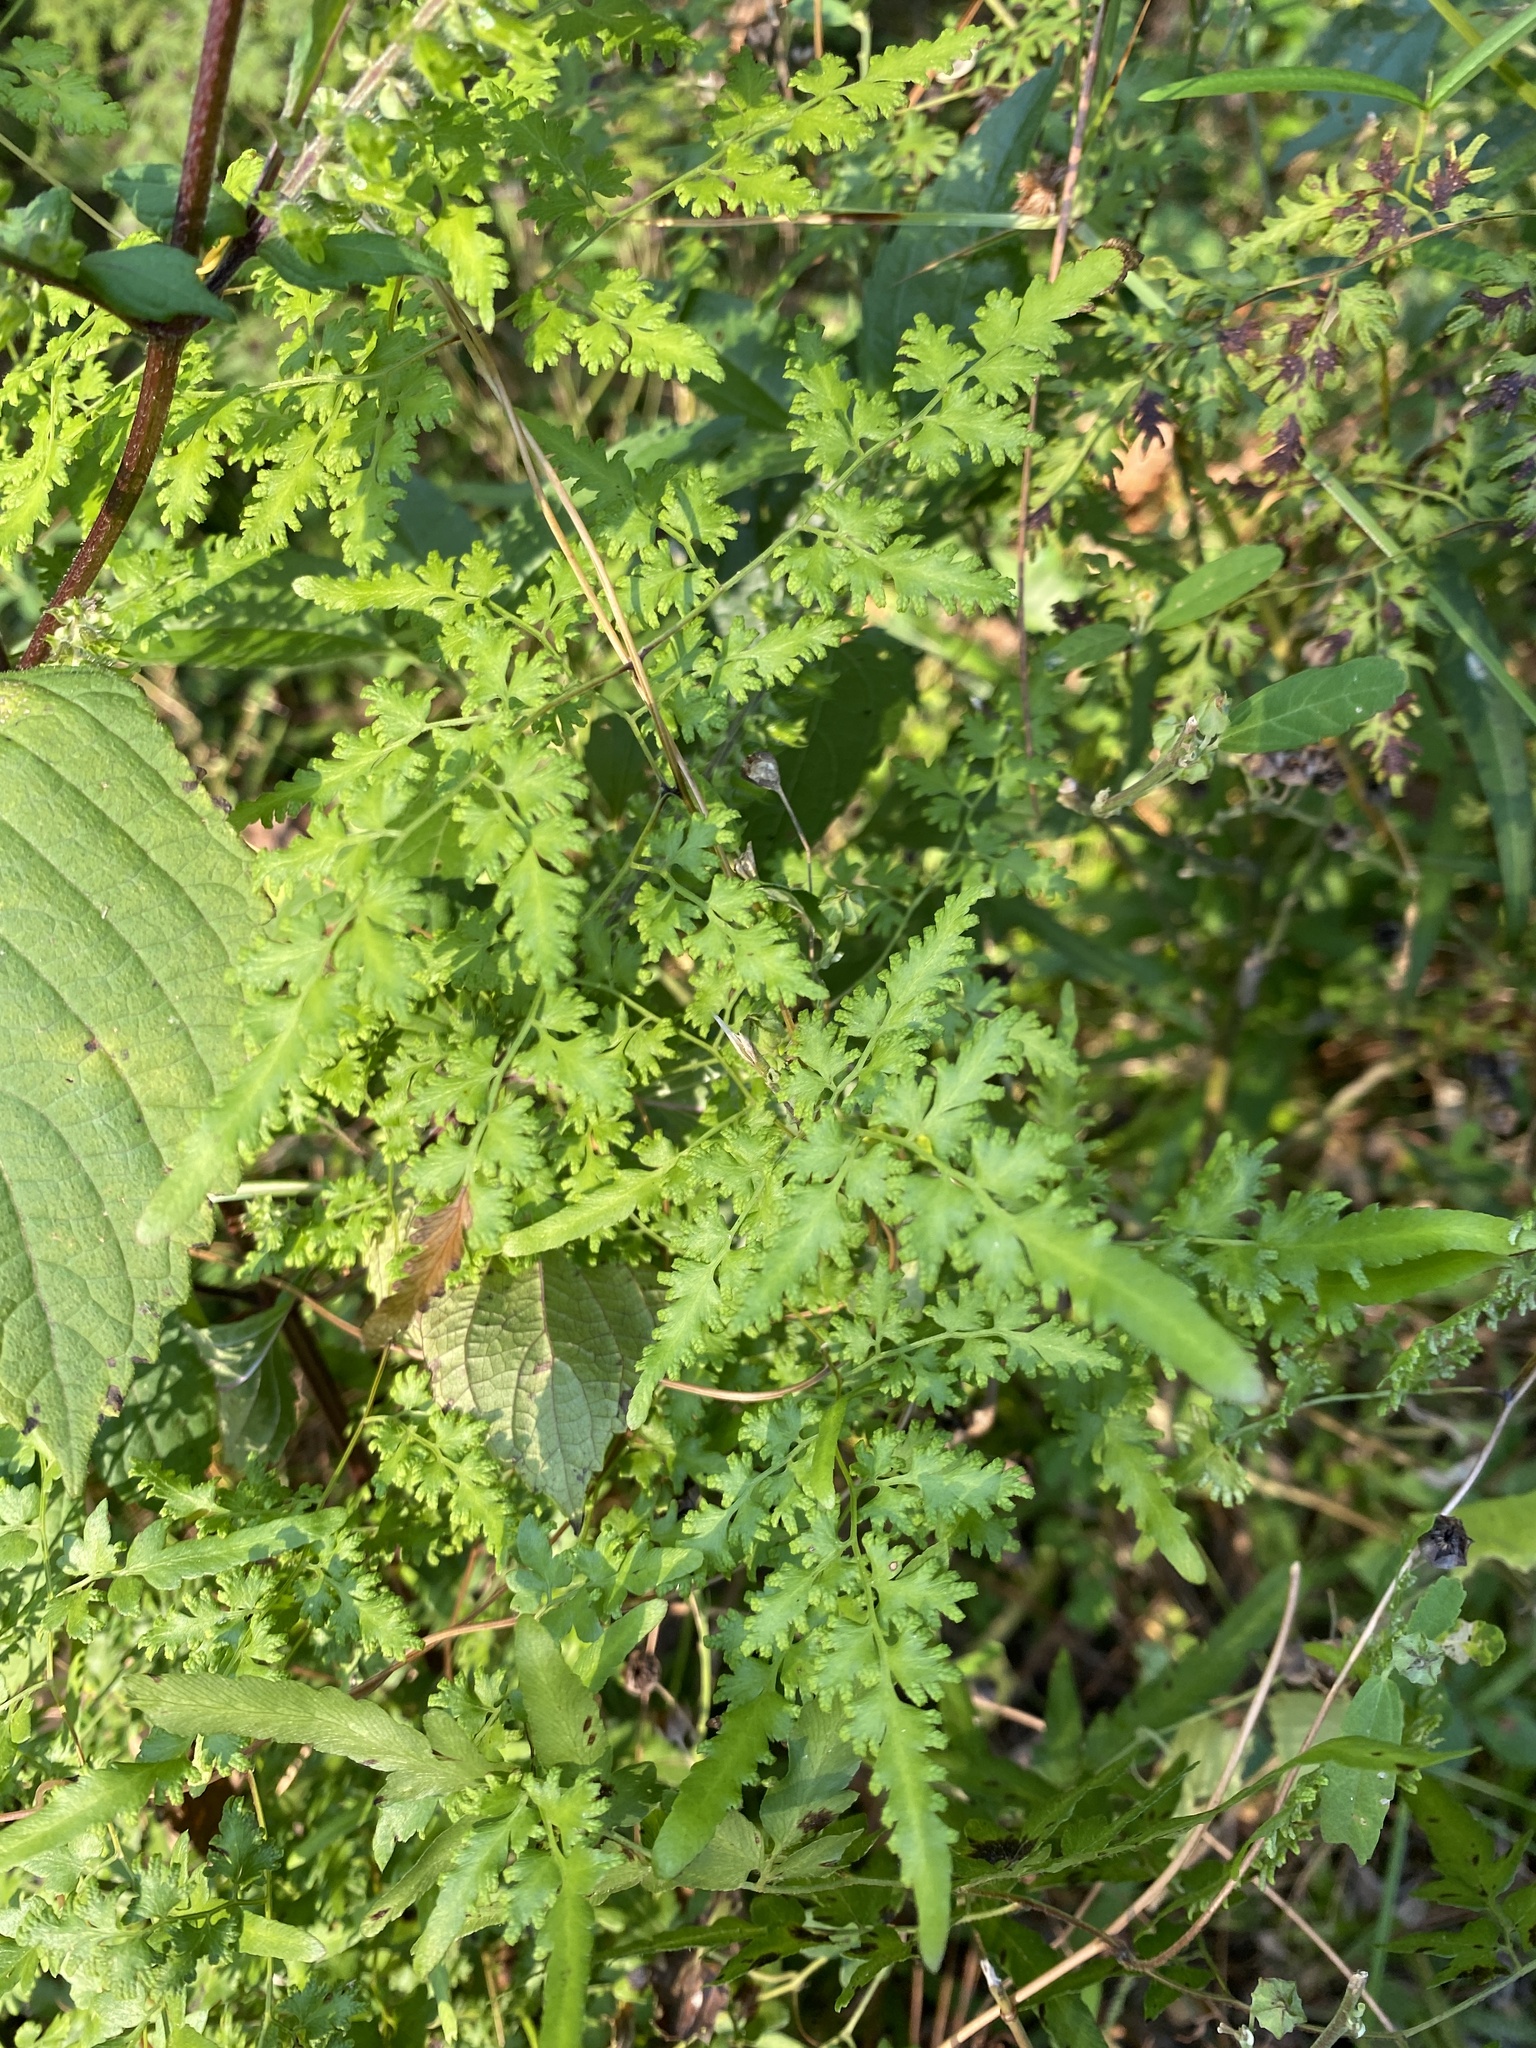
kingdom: Plantae
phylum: Tracheophyta
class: Polypodiopsida
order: Schizaeales
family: Lygodiaceae
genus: Lygodium
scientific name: Lygodium japonicum
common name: Japanese climbing fern
